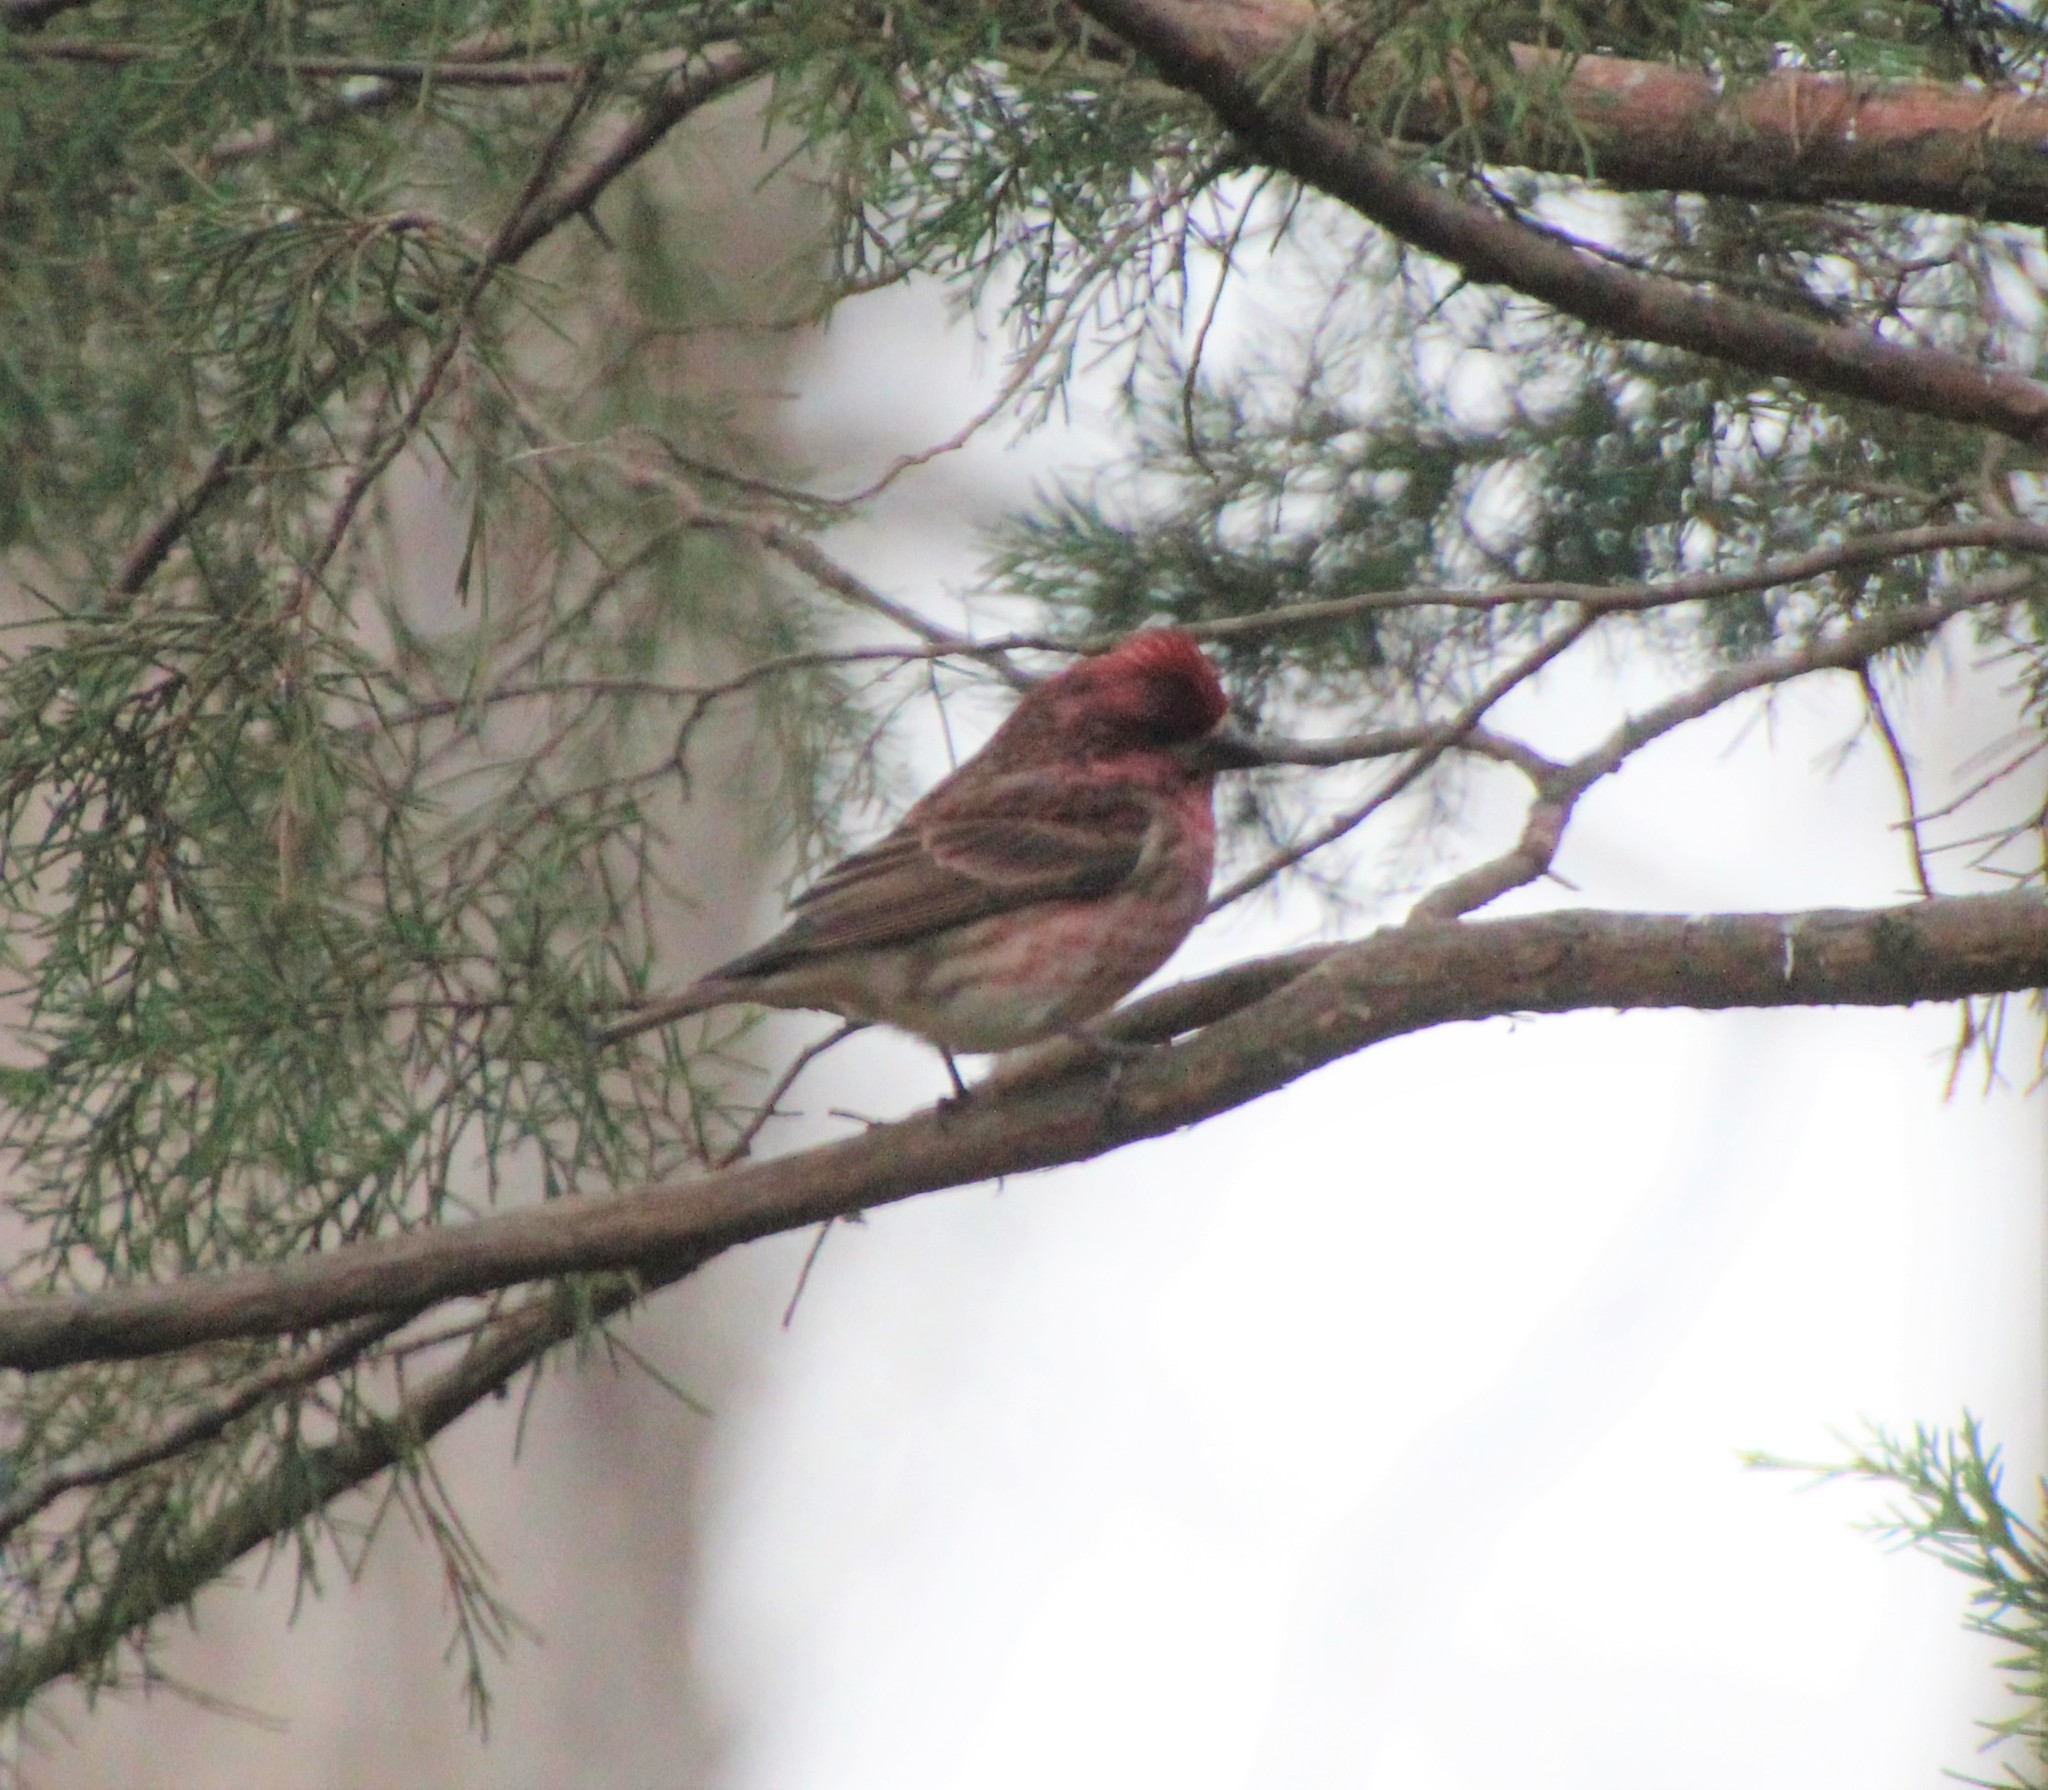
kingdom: Animalia
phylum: Chordata
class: Aves
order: Passeriformes
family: Fringillidae
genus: Haemorhous
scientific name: Haemorhous purpureus
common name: Purple finch
